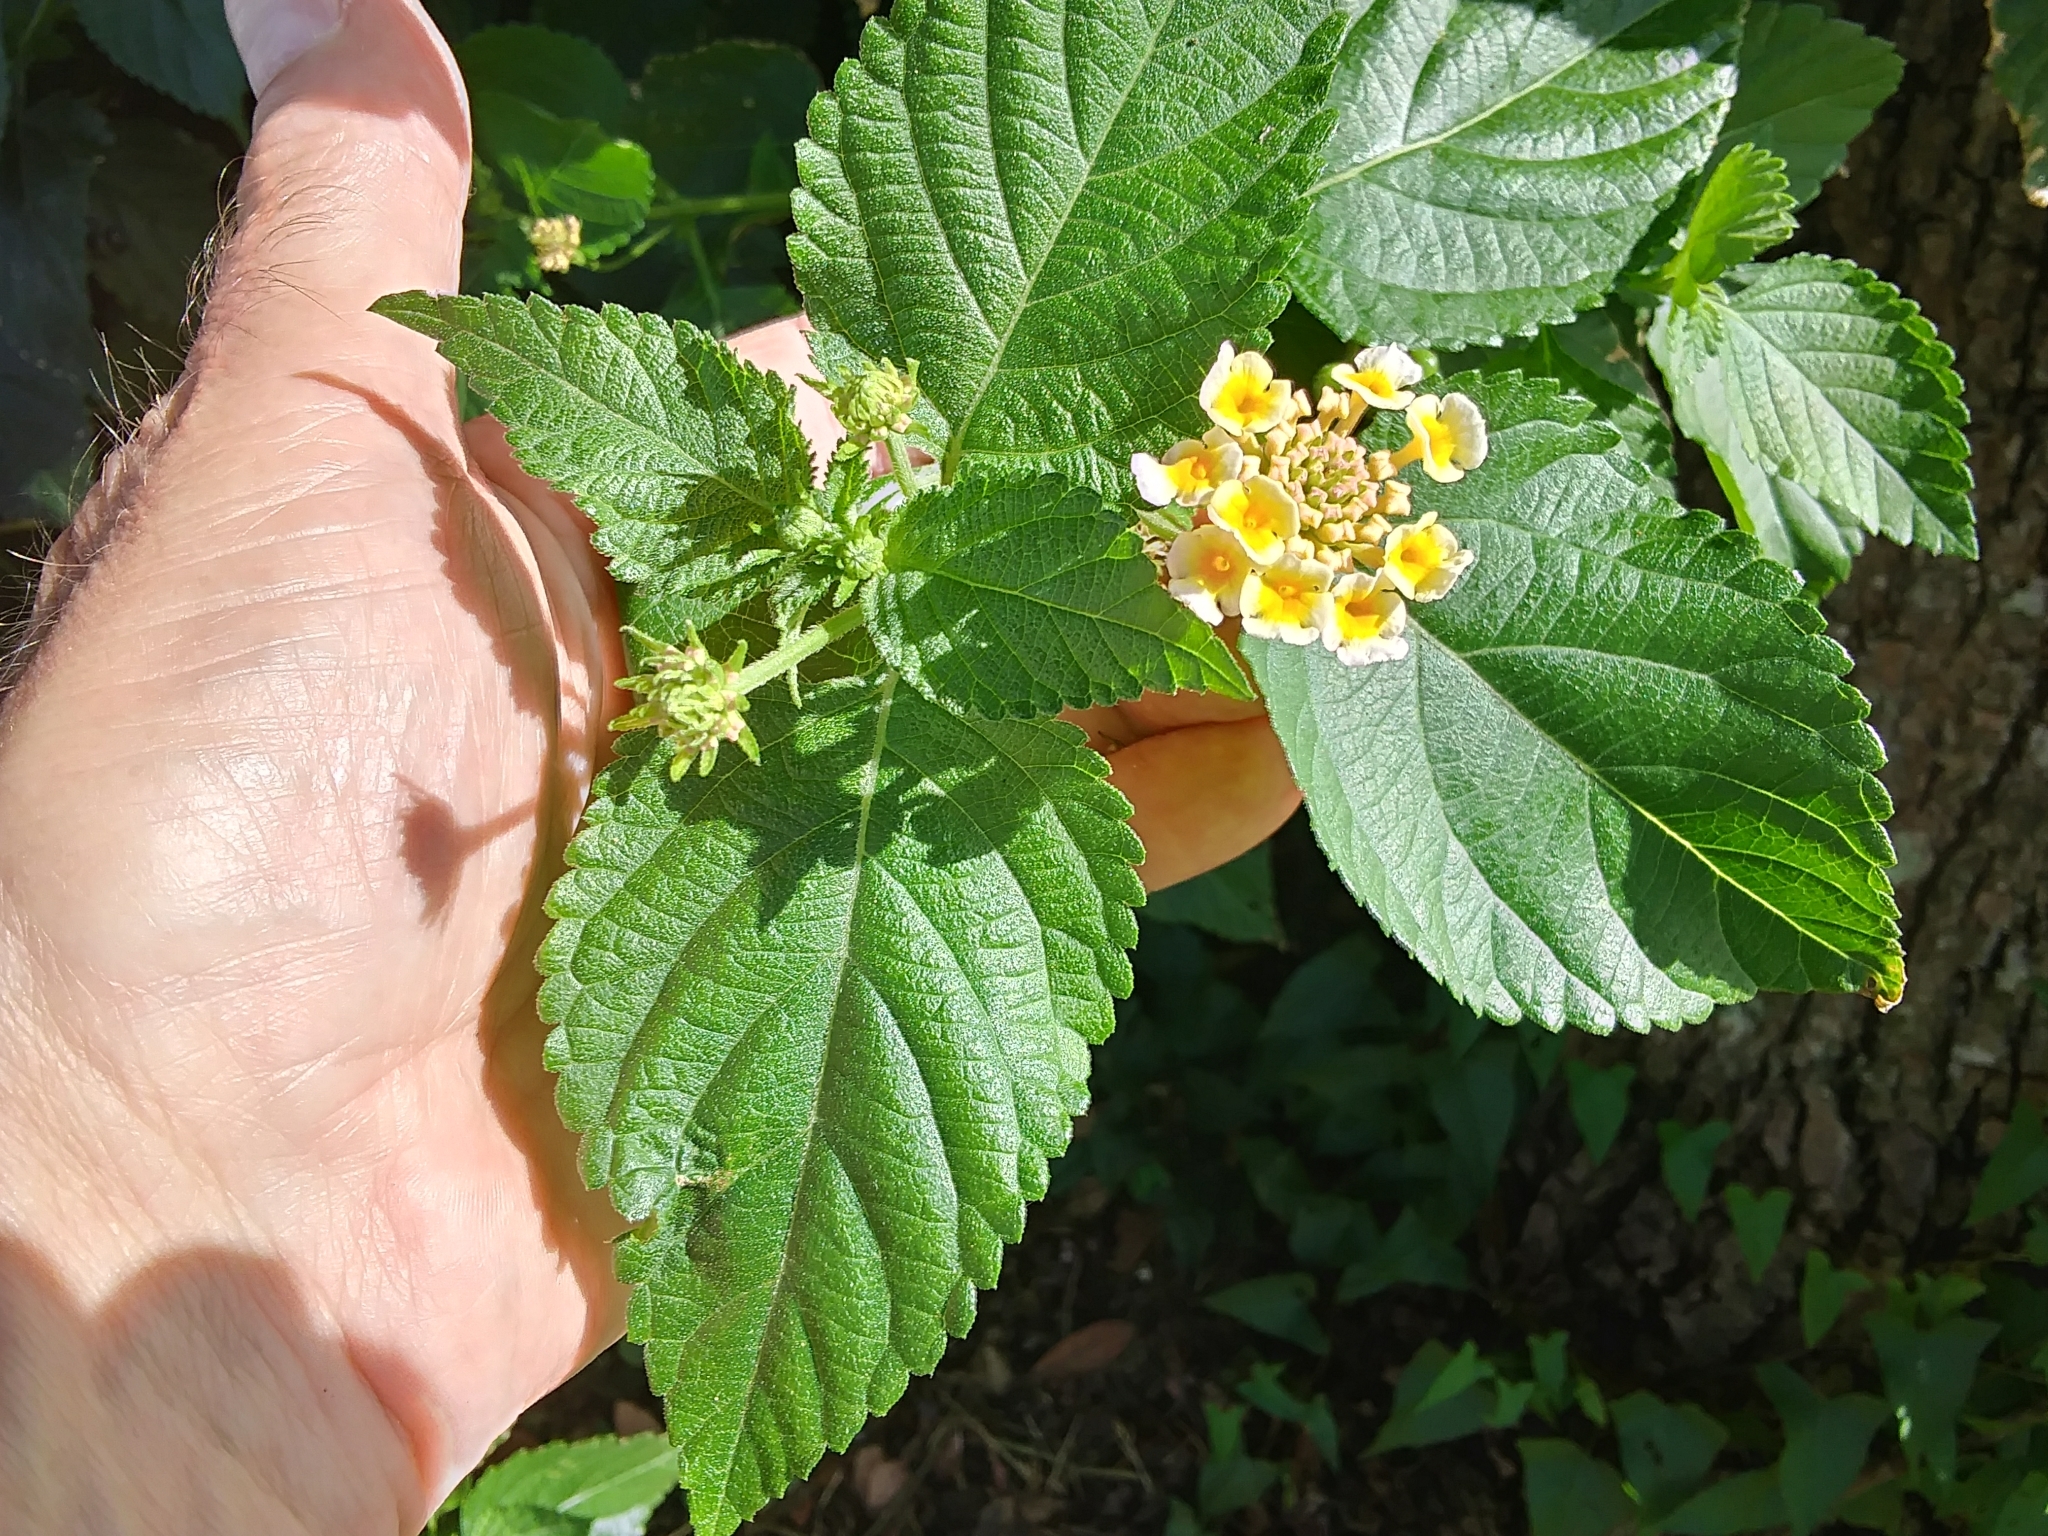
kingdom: Plantae
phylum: Tracheophyta
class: Magnoliopsida
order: Lamiales
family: Verbenaceae
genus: Lantana
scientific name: Lantana camara
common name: Lantana
